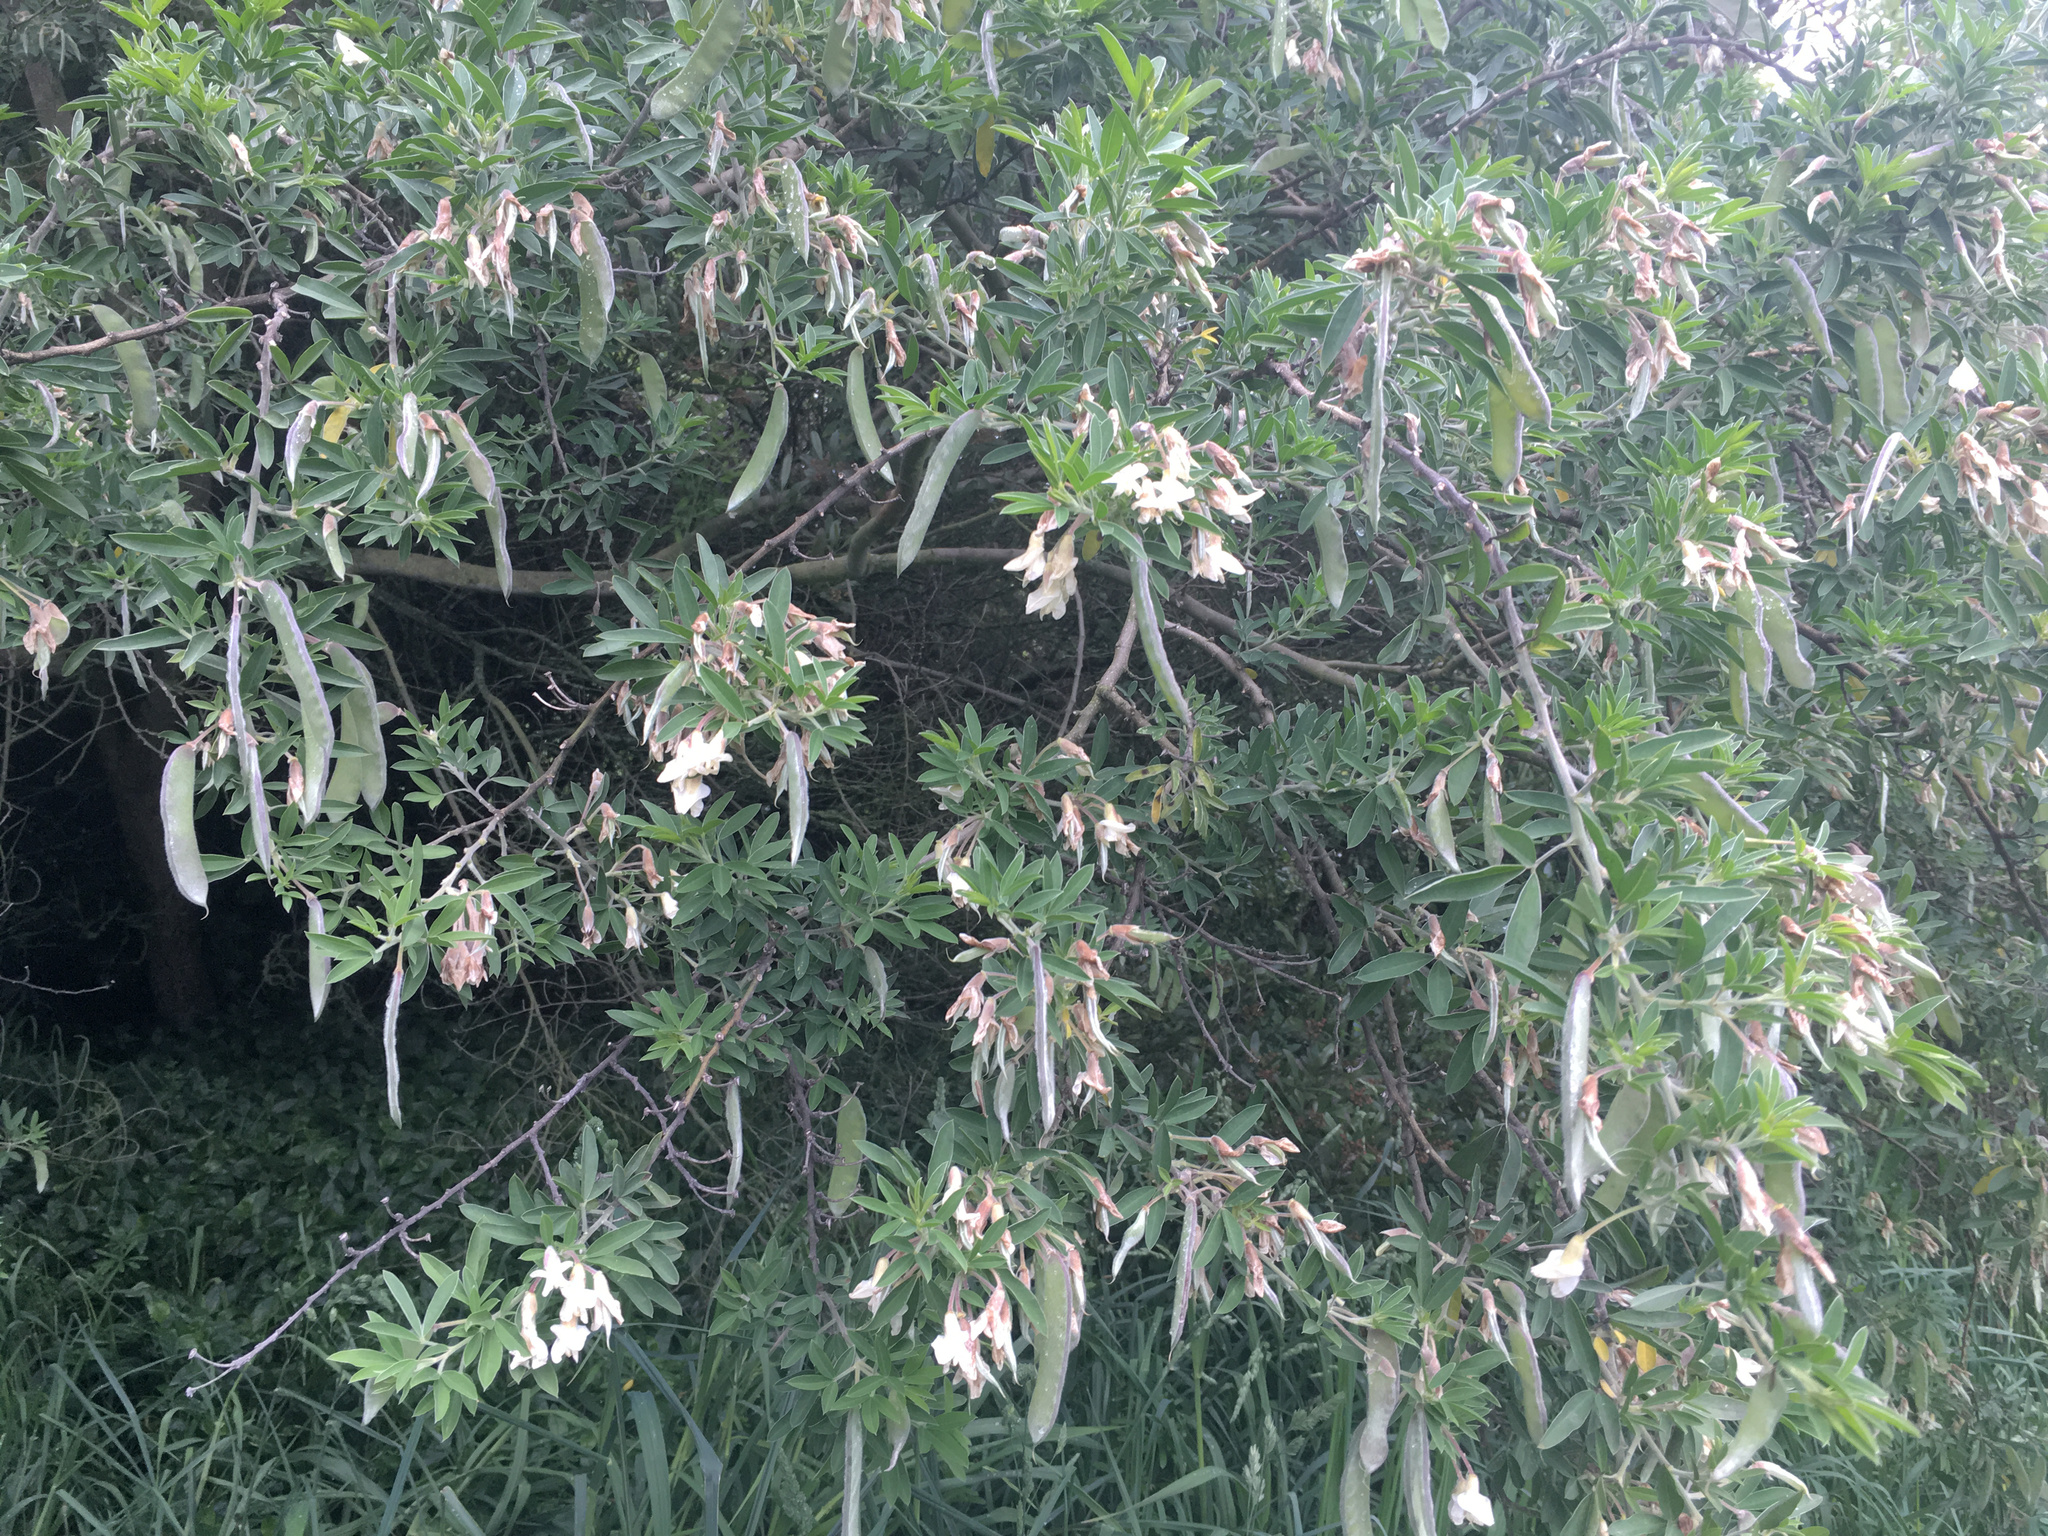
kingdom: Plantae
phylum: Tracheophyta
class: Magnoliopsida
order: Fabales
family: Fabaceae
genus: Chamaecytisus
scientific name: Chamaecytisus prolifer
